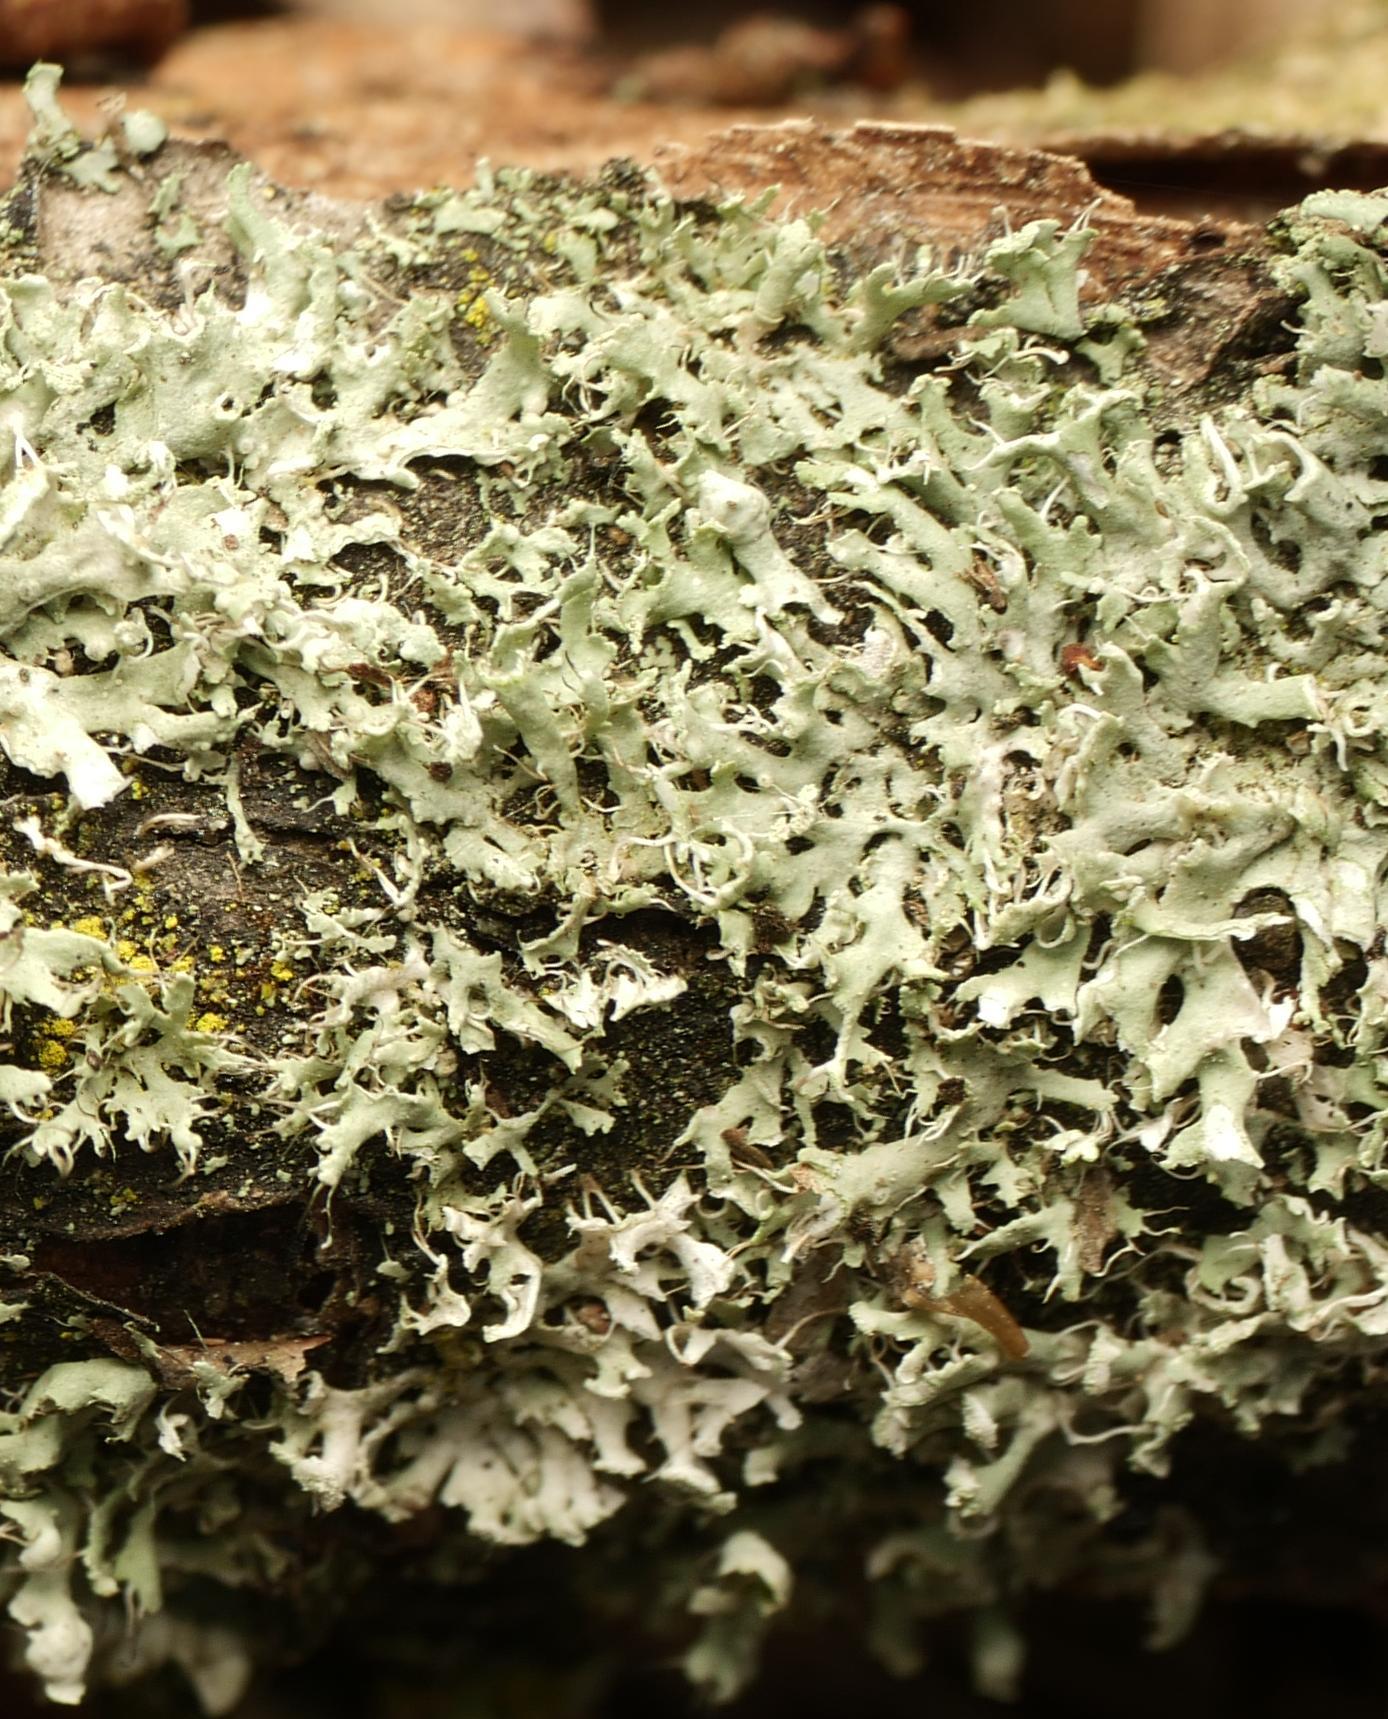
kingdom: Fungi
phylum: Ascomycota
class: Lecanoromycetes
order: Caliciales
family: Physciaceae
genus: Physcia
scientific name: Physcia tenella
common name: Fringed rosette lichen
